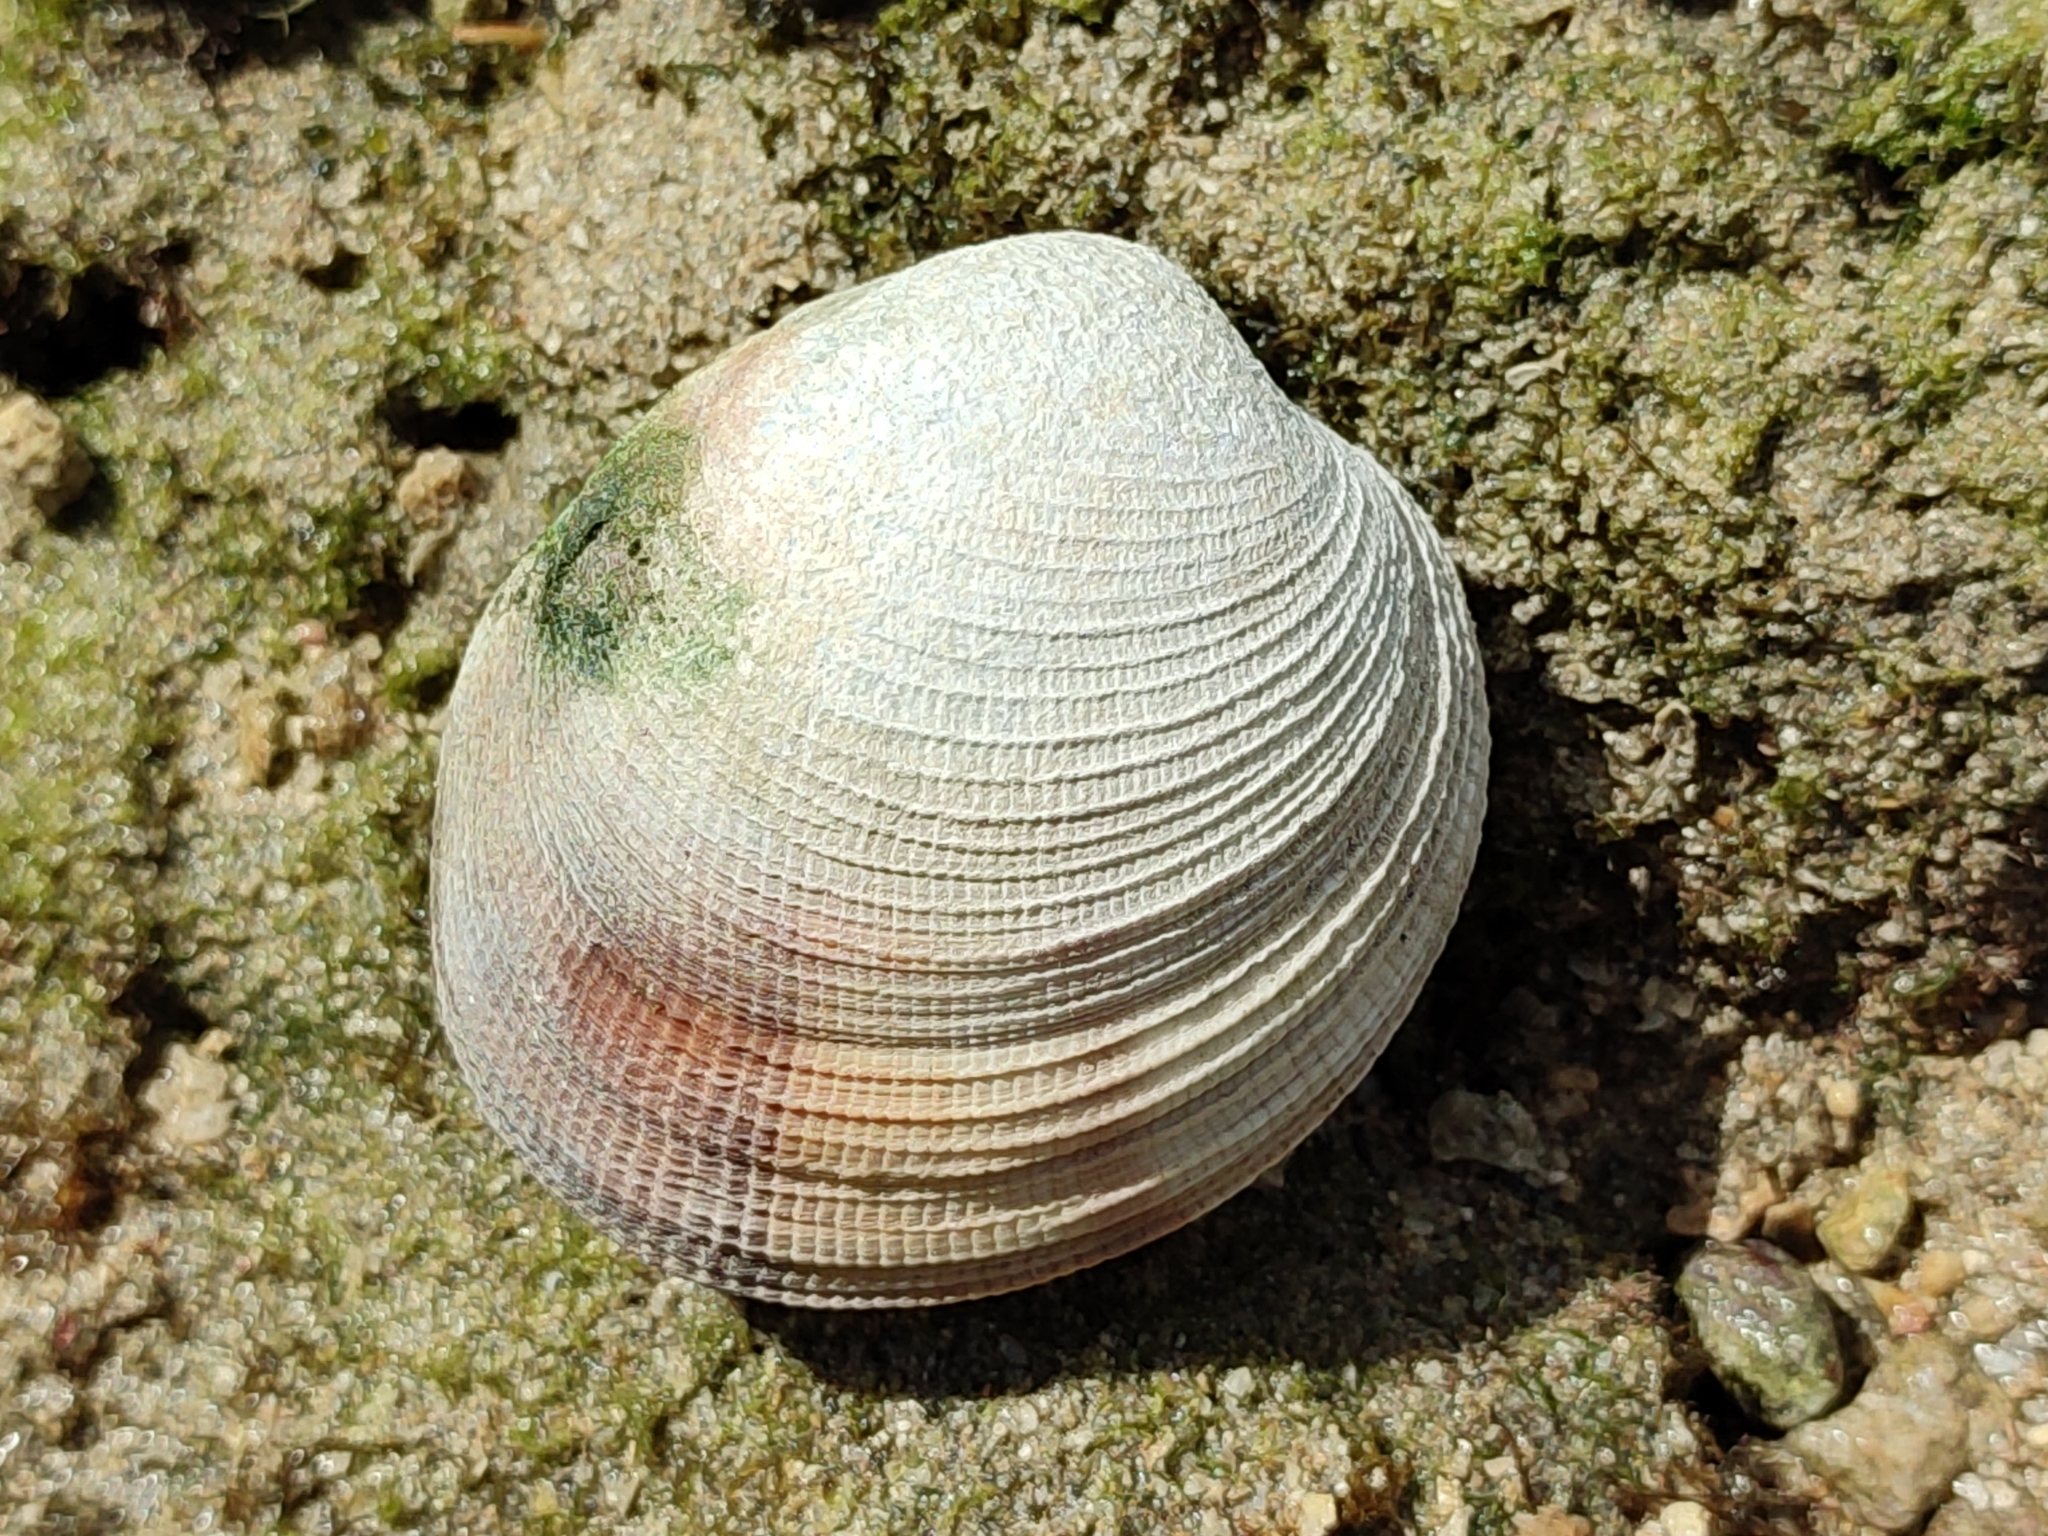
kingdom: Animalia
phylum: Mollusca
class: Bivalvia
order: Venerida
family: Veneridae
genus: Periglypta
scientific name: Periglypta puerpera
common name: Youthful venus
